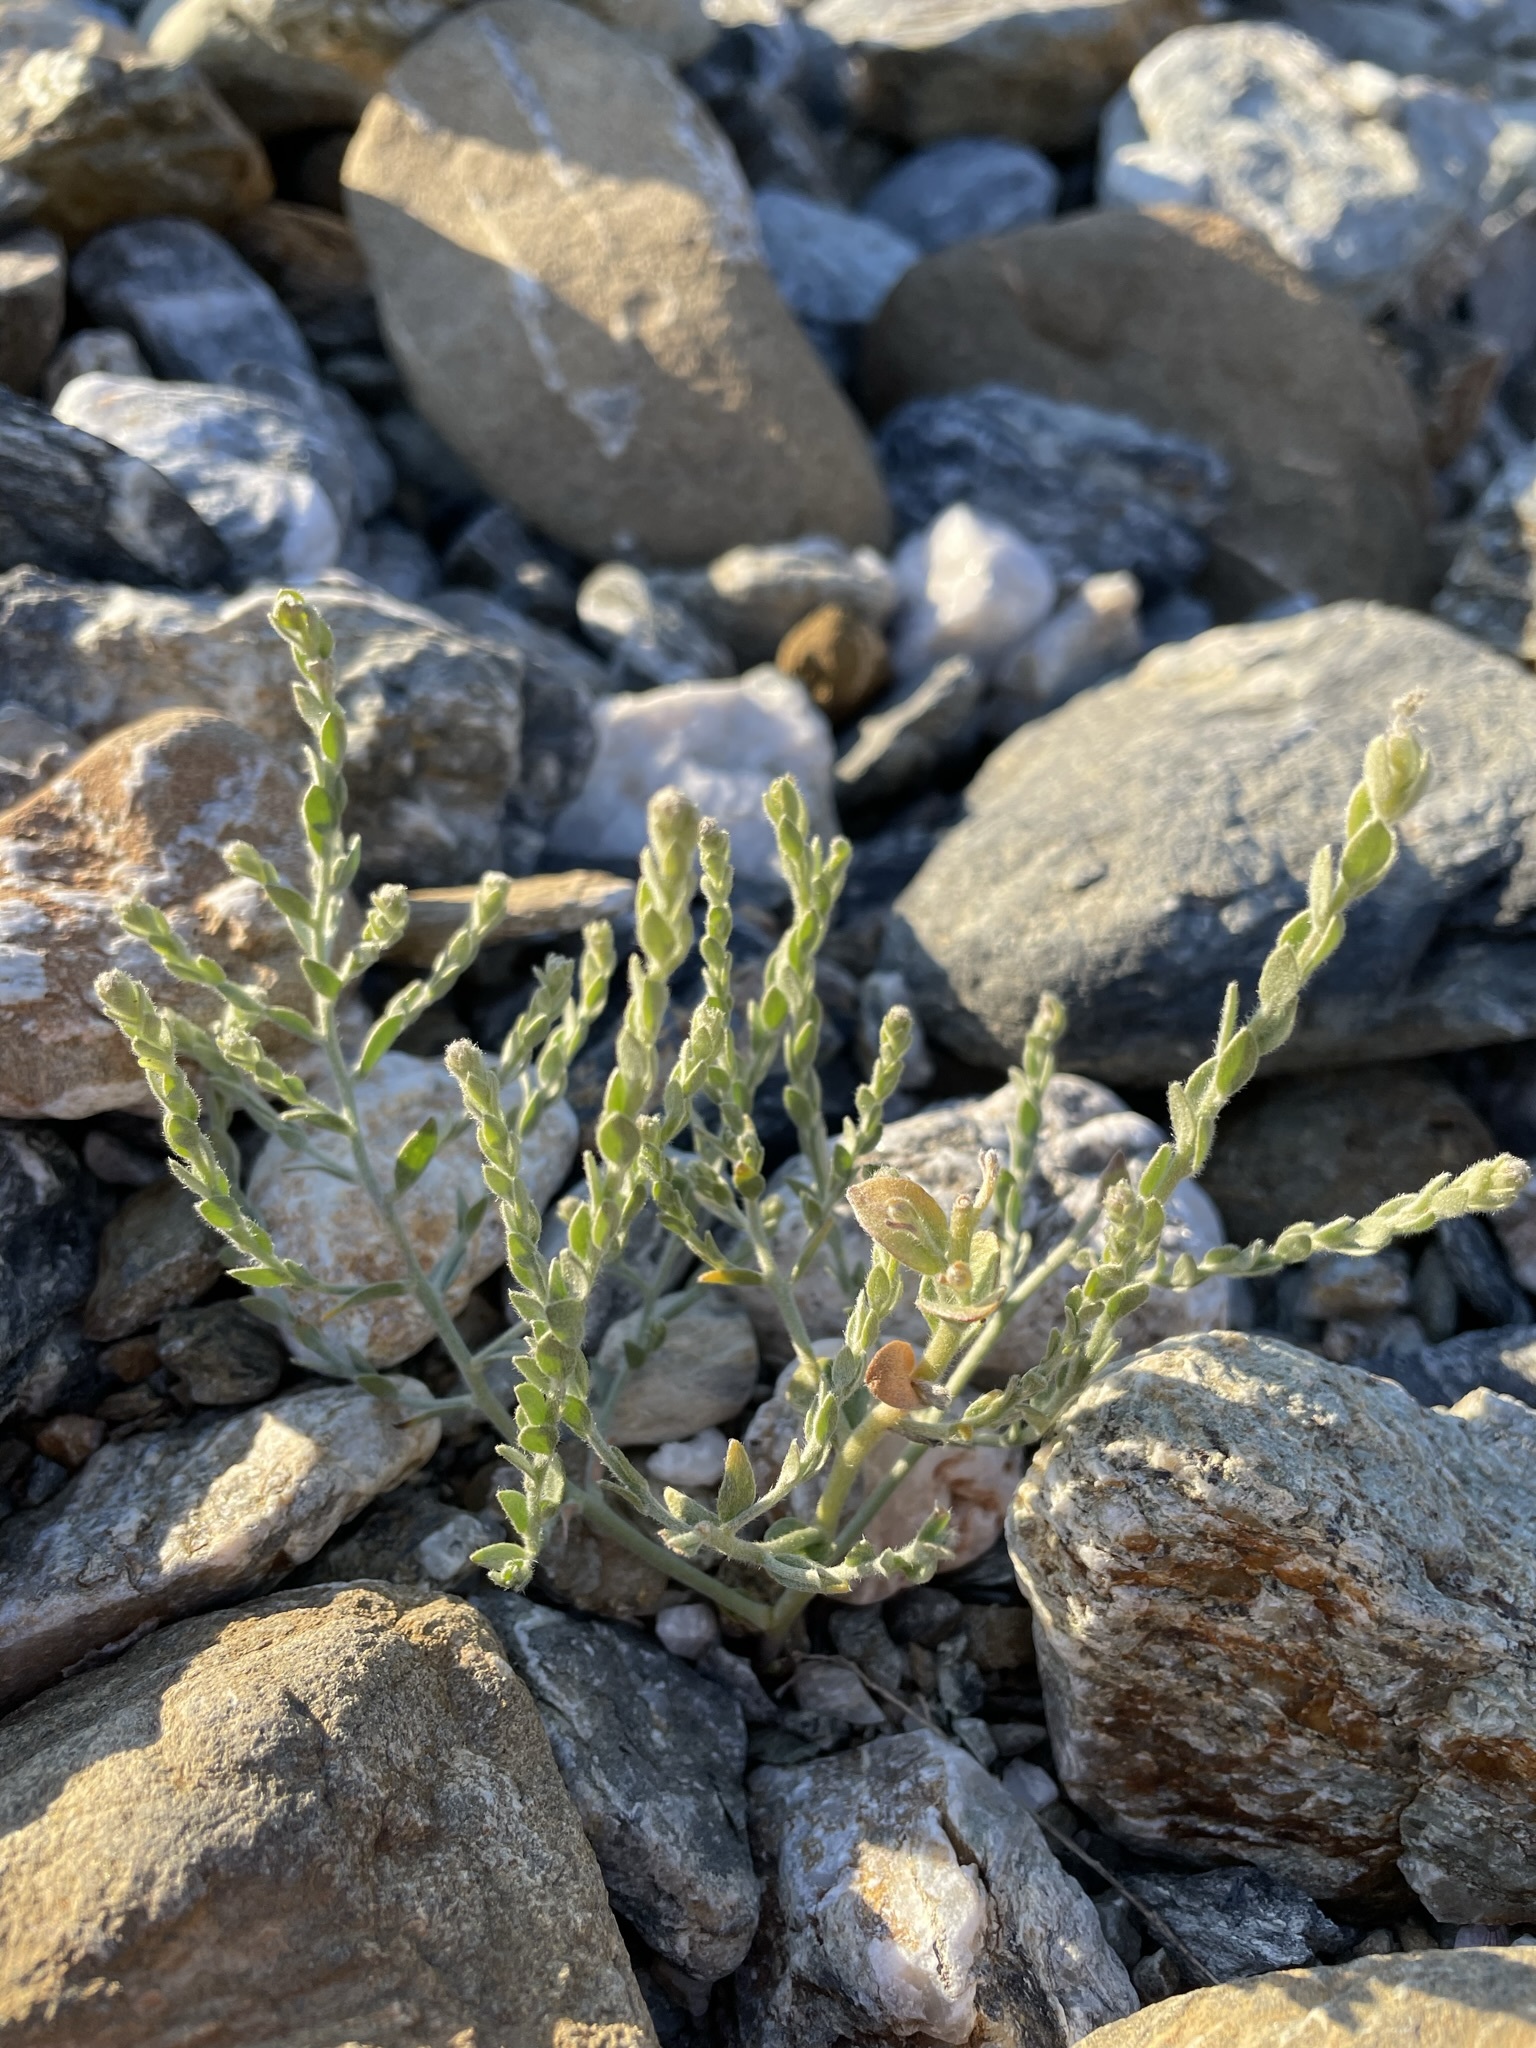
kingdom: Plantae
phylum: Tracheophyta
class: Magnoliopsida
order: Solanales
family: Convolvulaceae
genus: Cressa
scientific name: Cressa truxillensis
